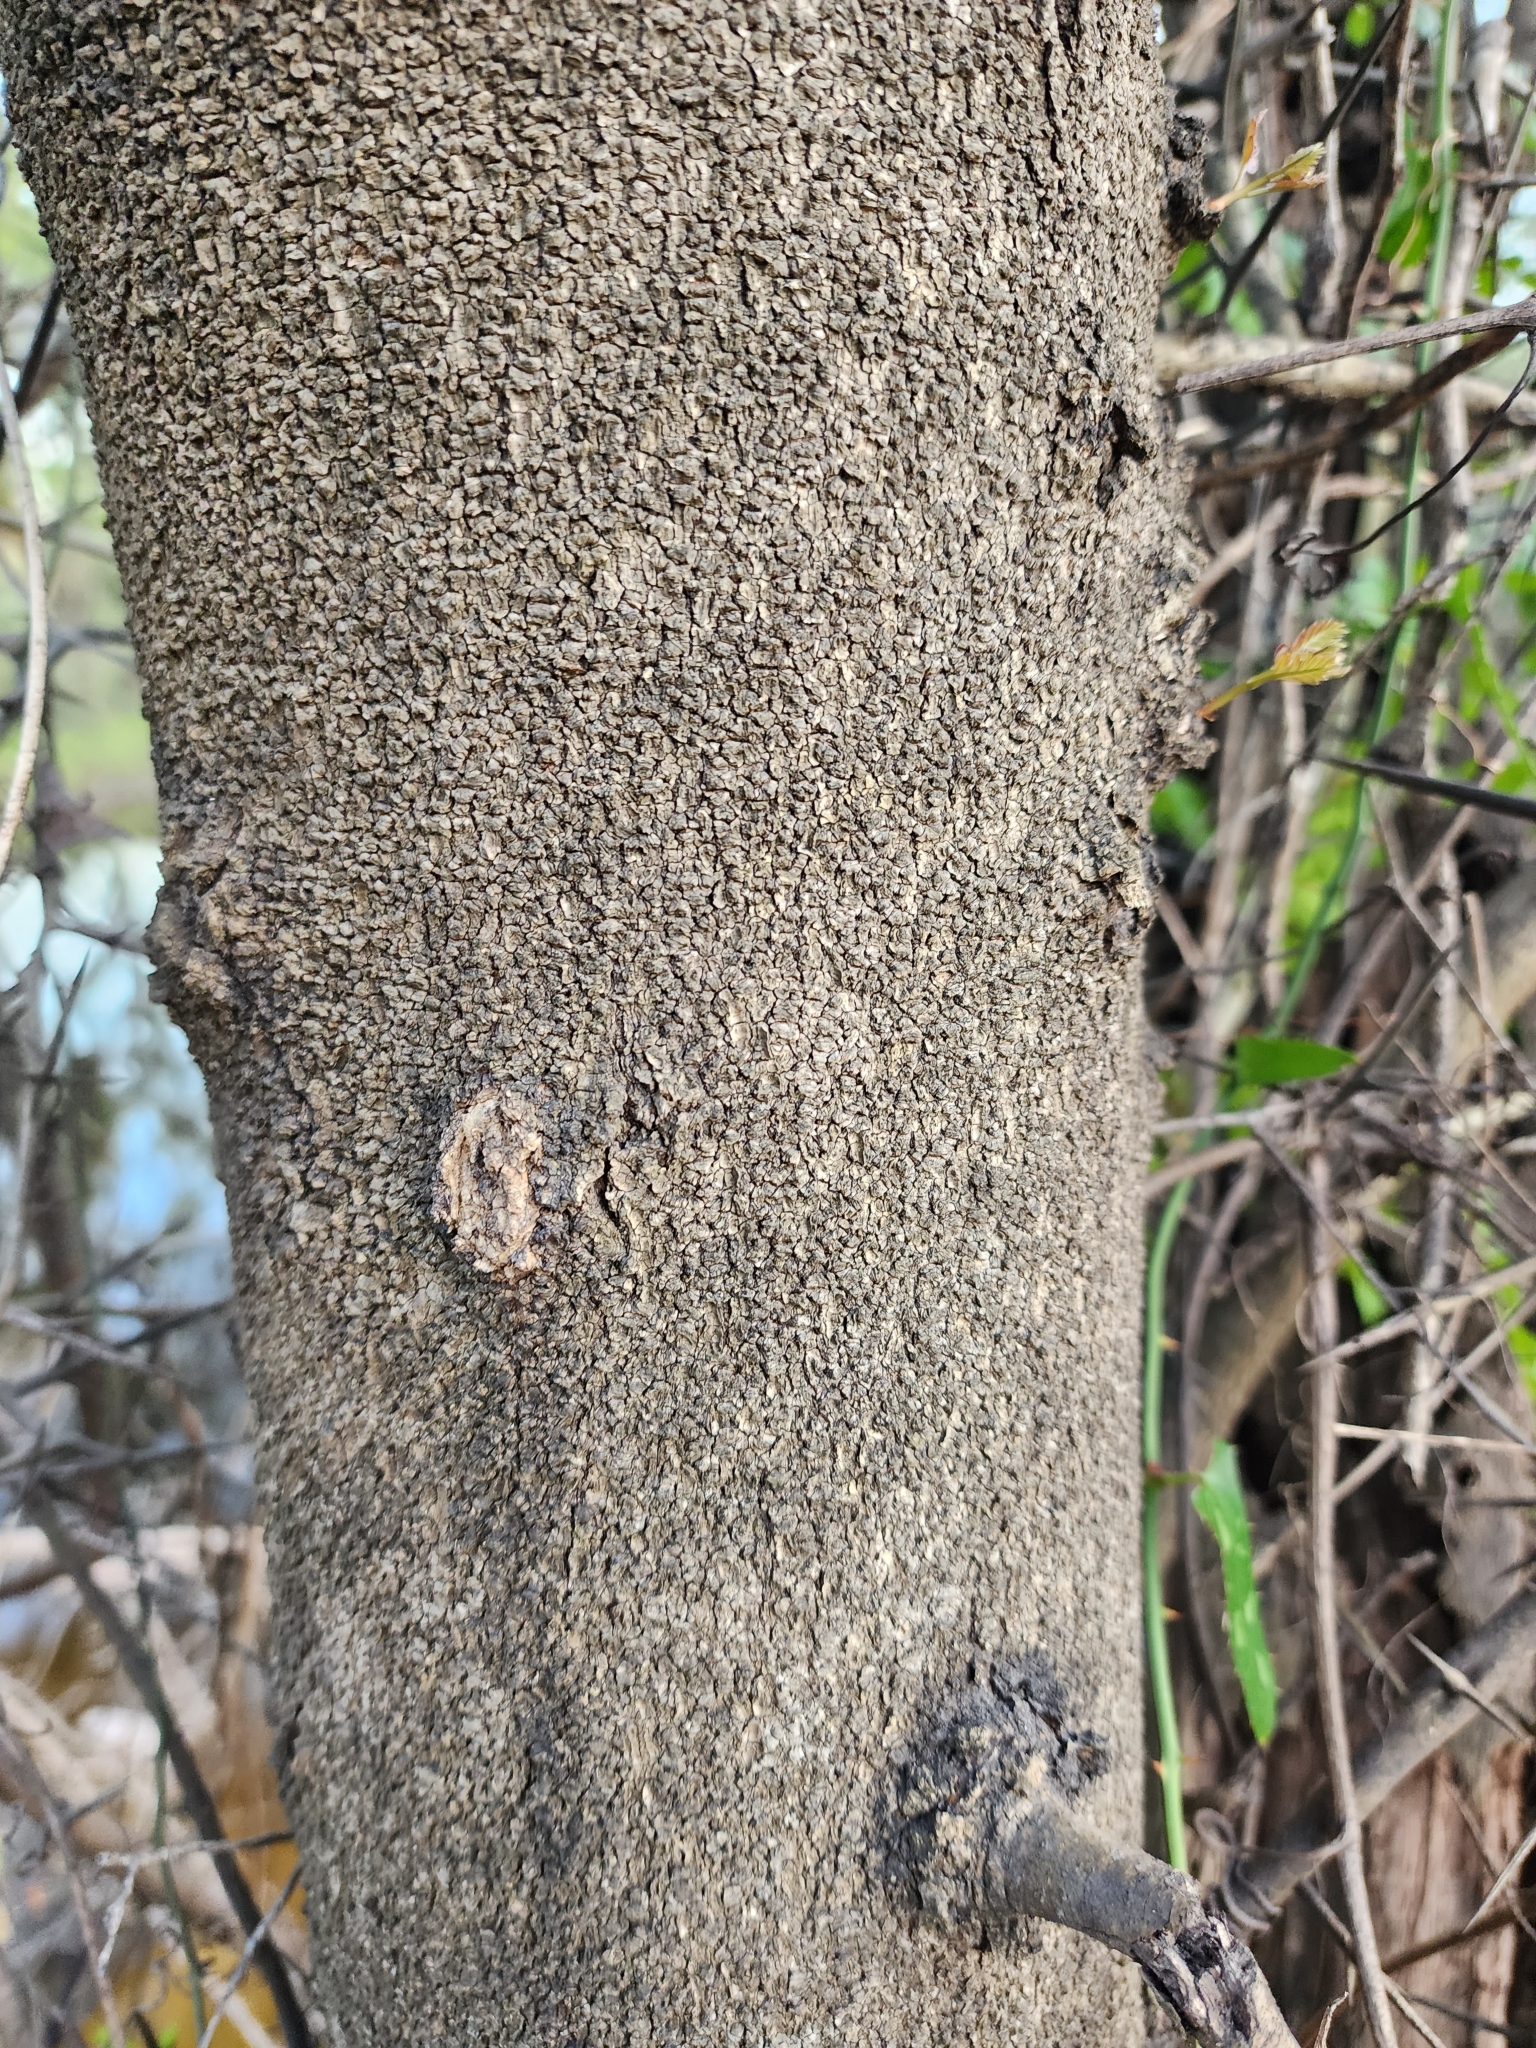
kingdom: Plantae
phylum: Tracheophyta
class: Magnoliopsida
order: Fabales
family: Fabaceae
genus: Gleditsia
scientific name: Gleditsia aquatica
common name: Swamp-locust
